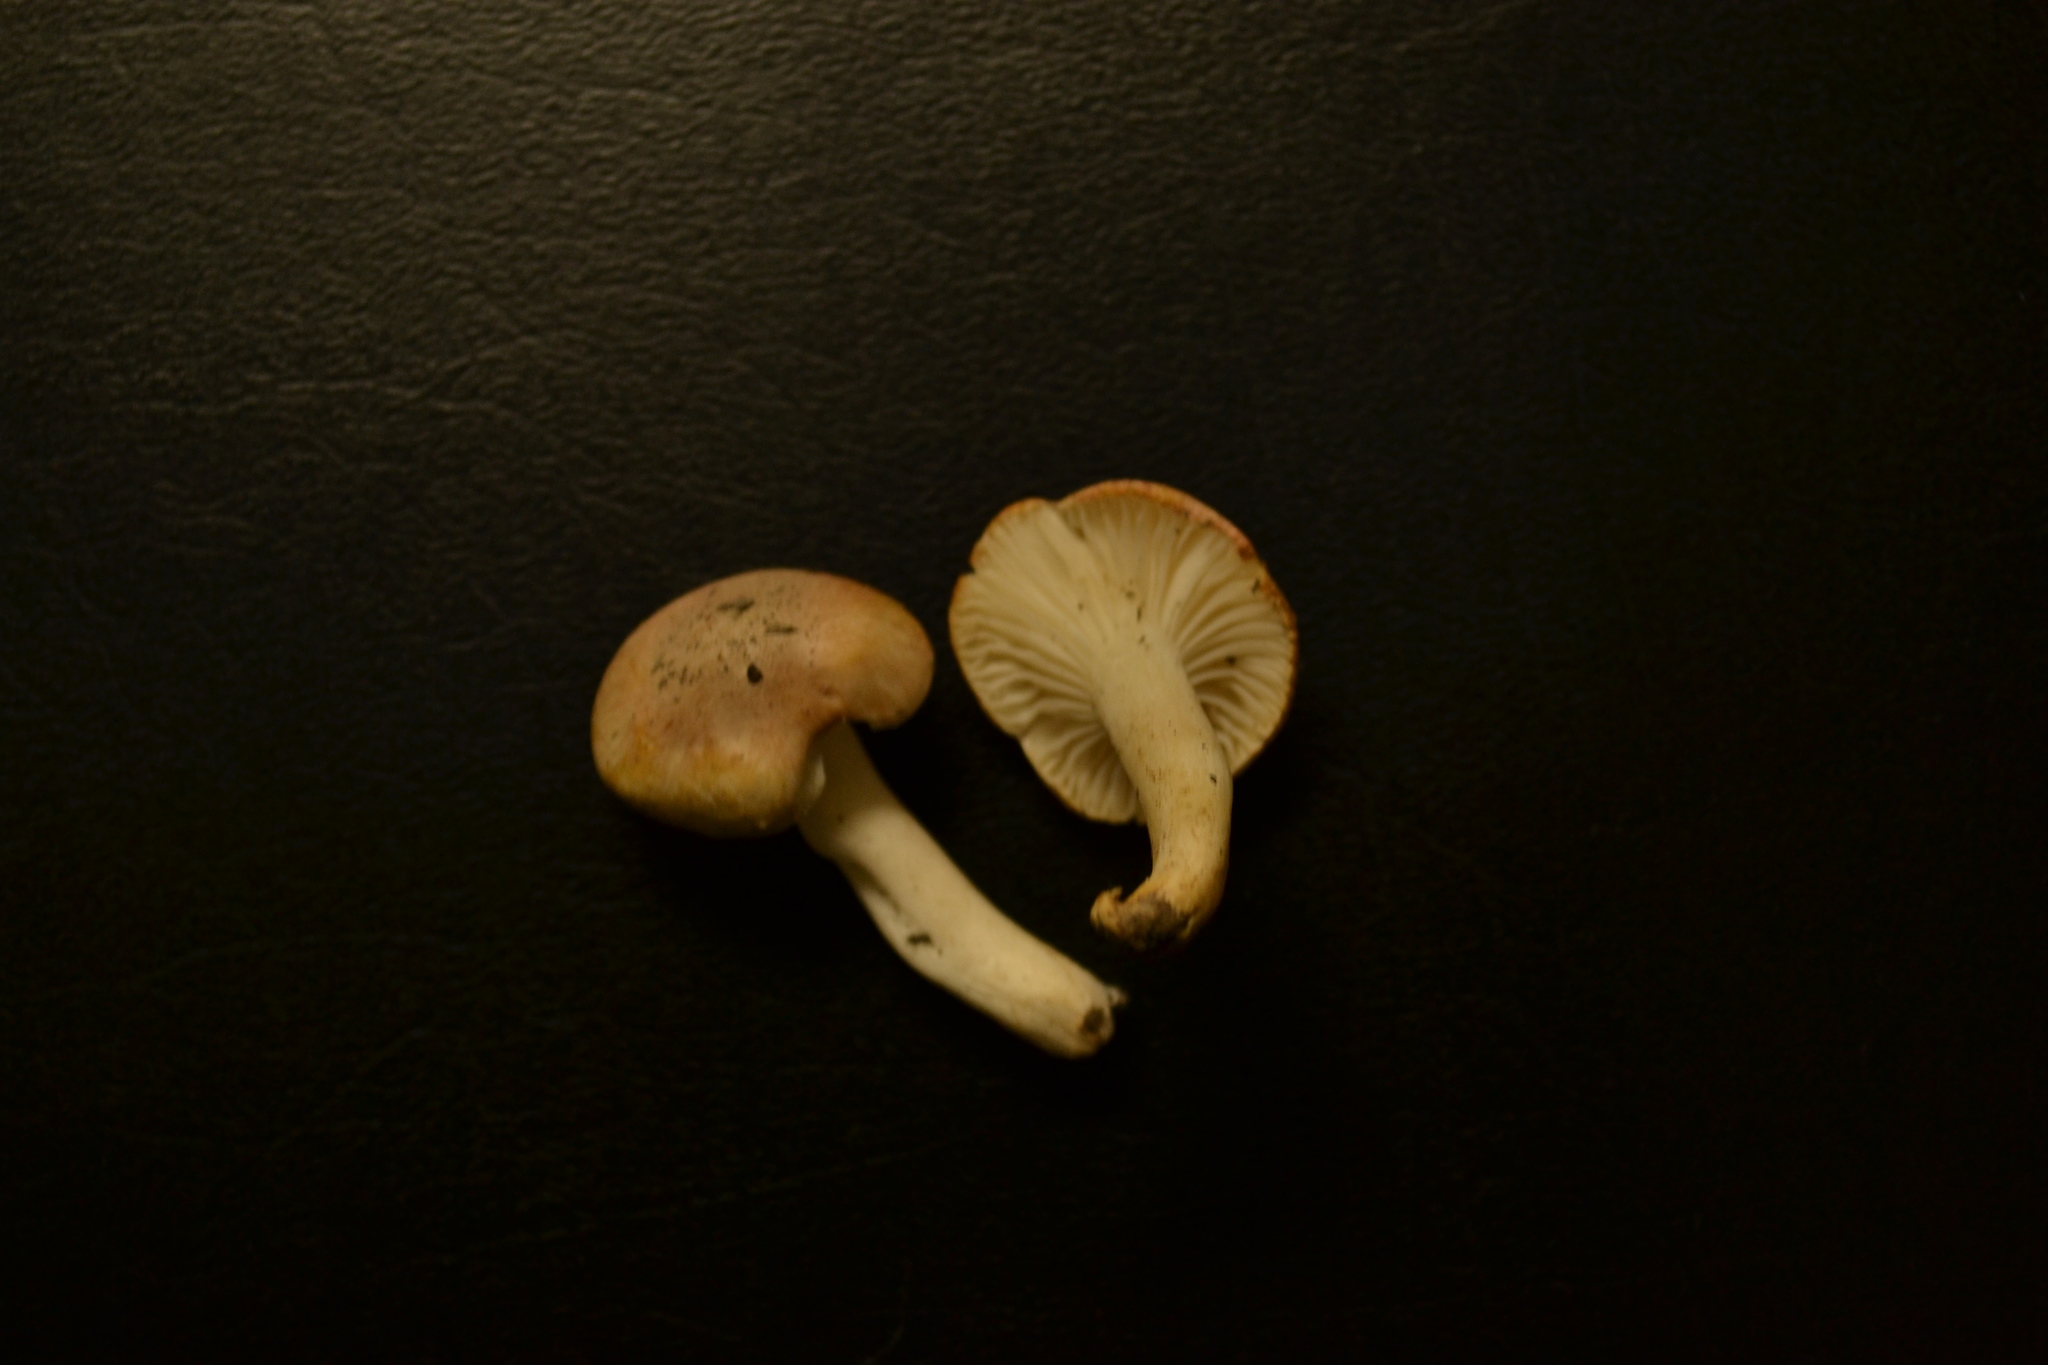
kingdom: Fungi
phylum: Basidiomycota
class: Agaricomycetes
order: Agaricales
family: Hygrophoraceae
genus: Cuphophyllus
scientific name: Cuphophyllus pratensis
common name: Meadow waxcap
